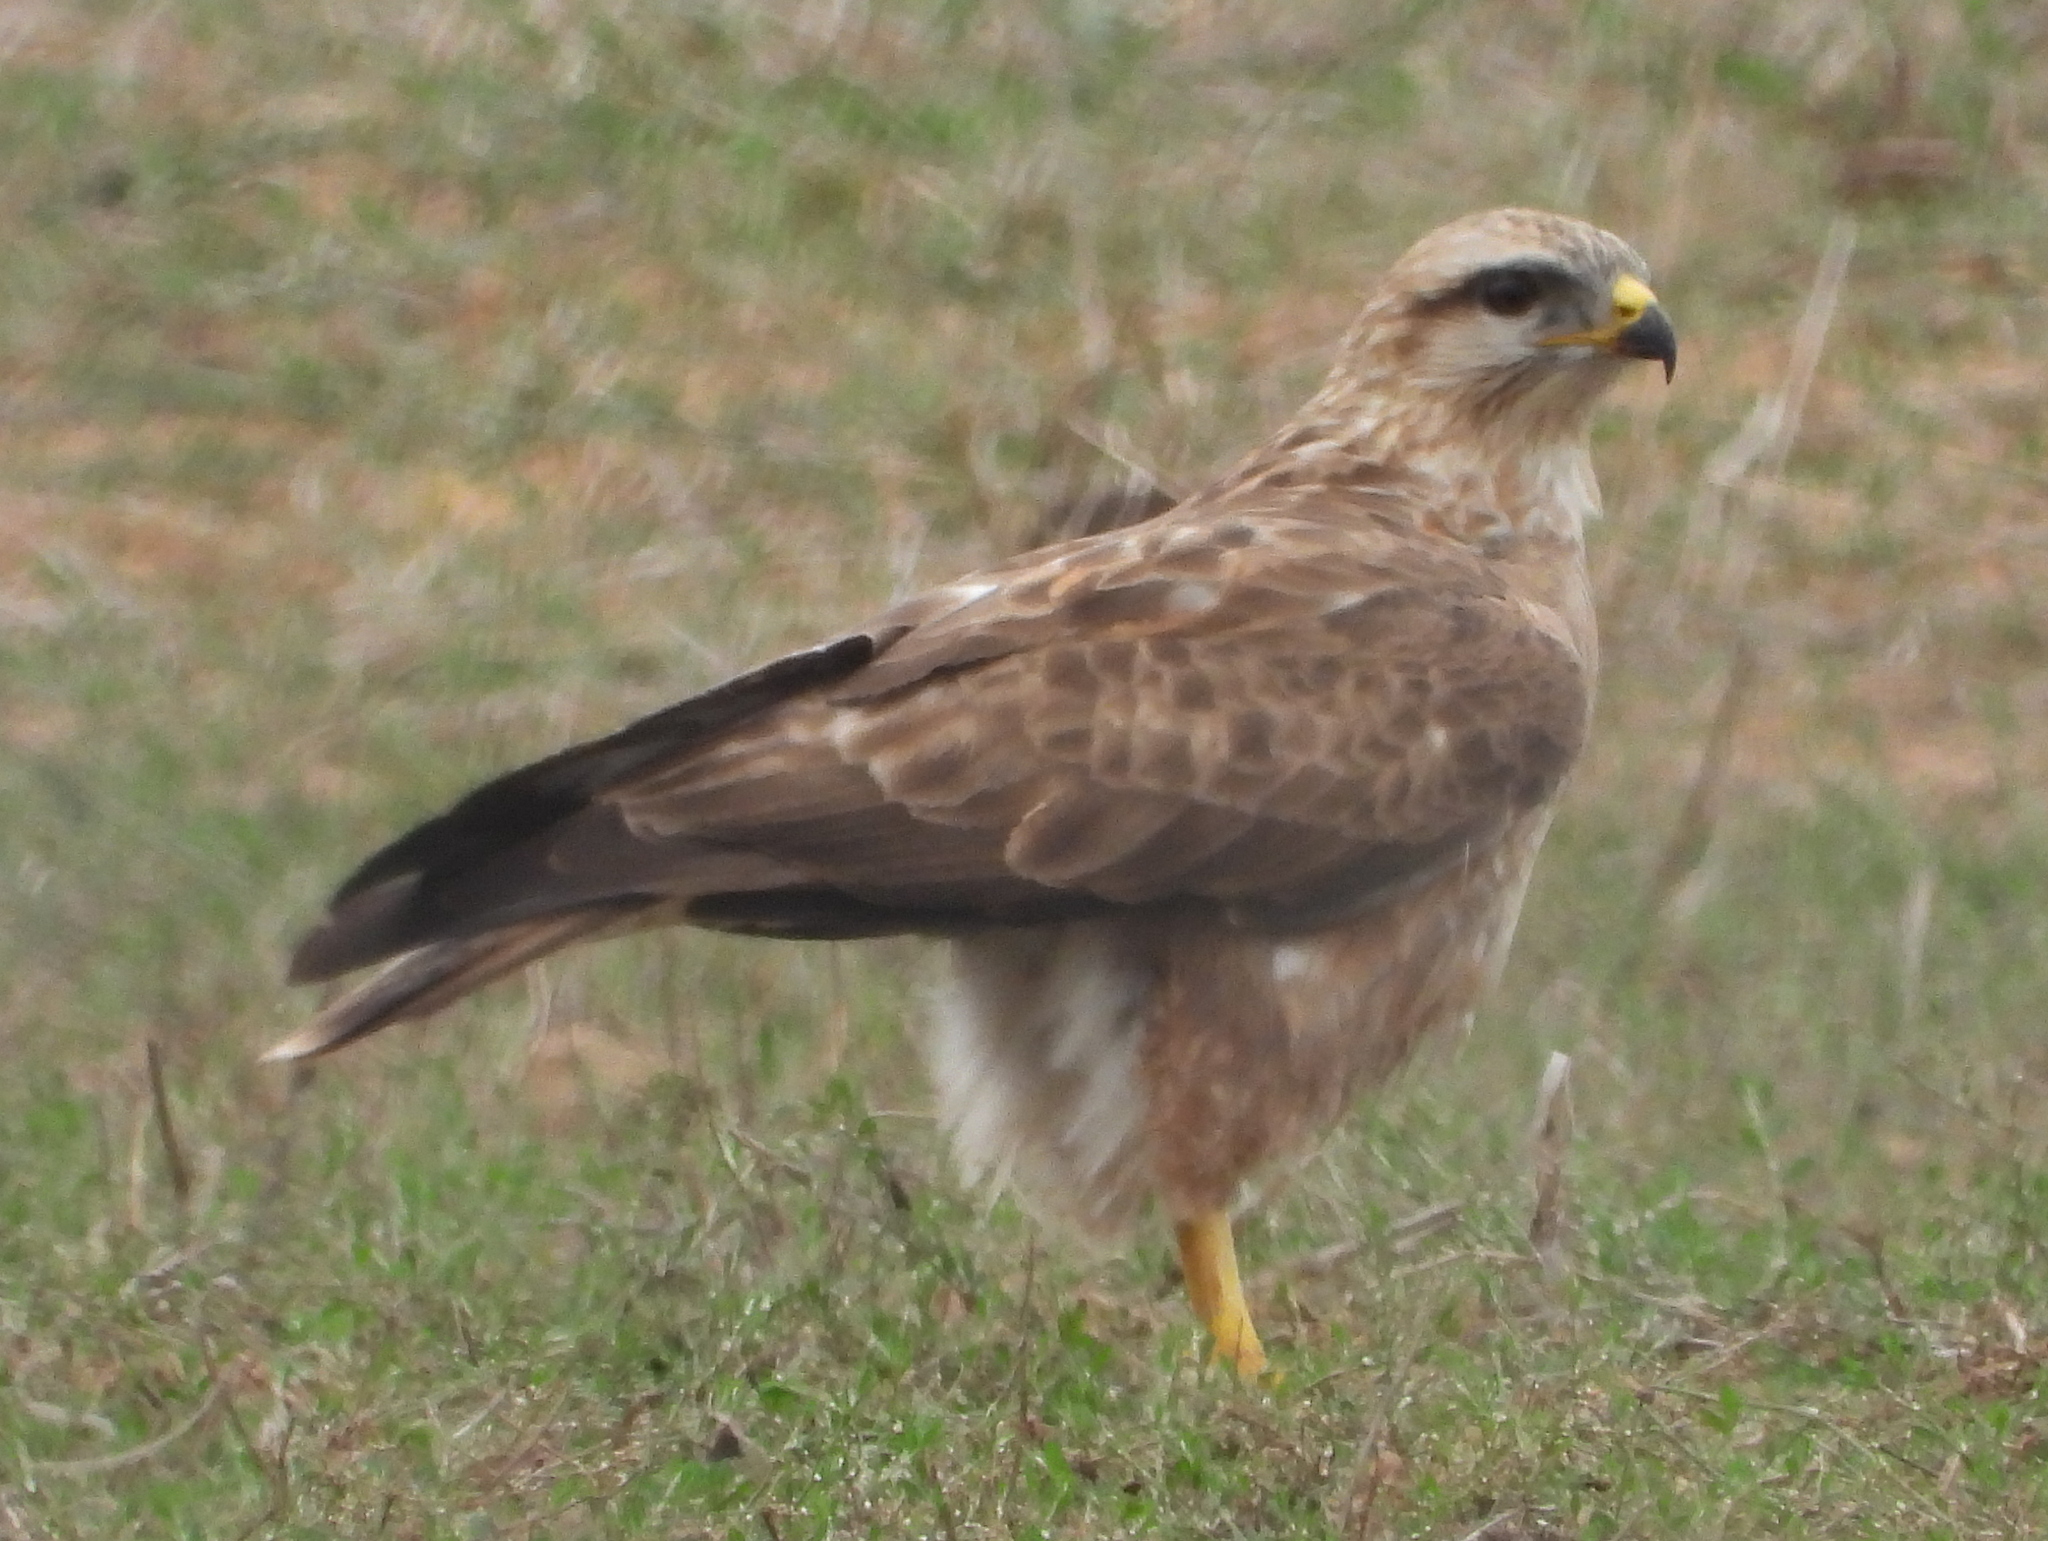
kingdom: Animalia
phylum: Chordata
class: Aves
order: Accipitriformes
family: Accipitridae
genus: Buteo
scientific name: Buteo buteo
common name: Common buzzard
